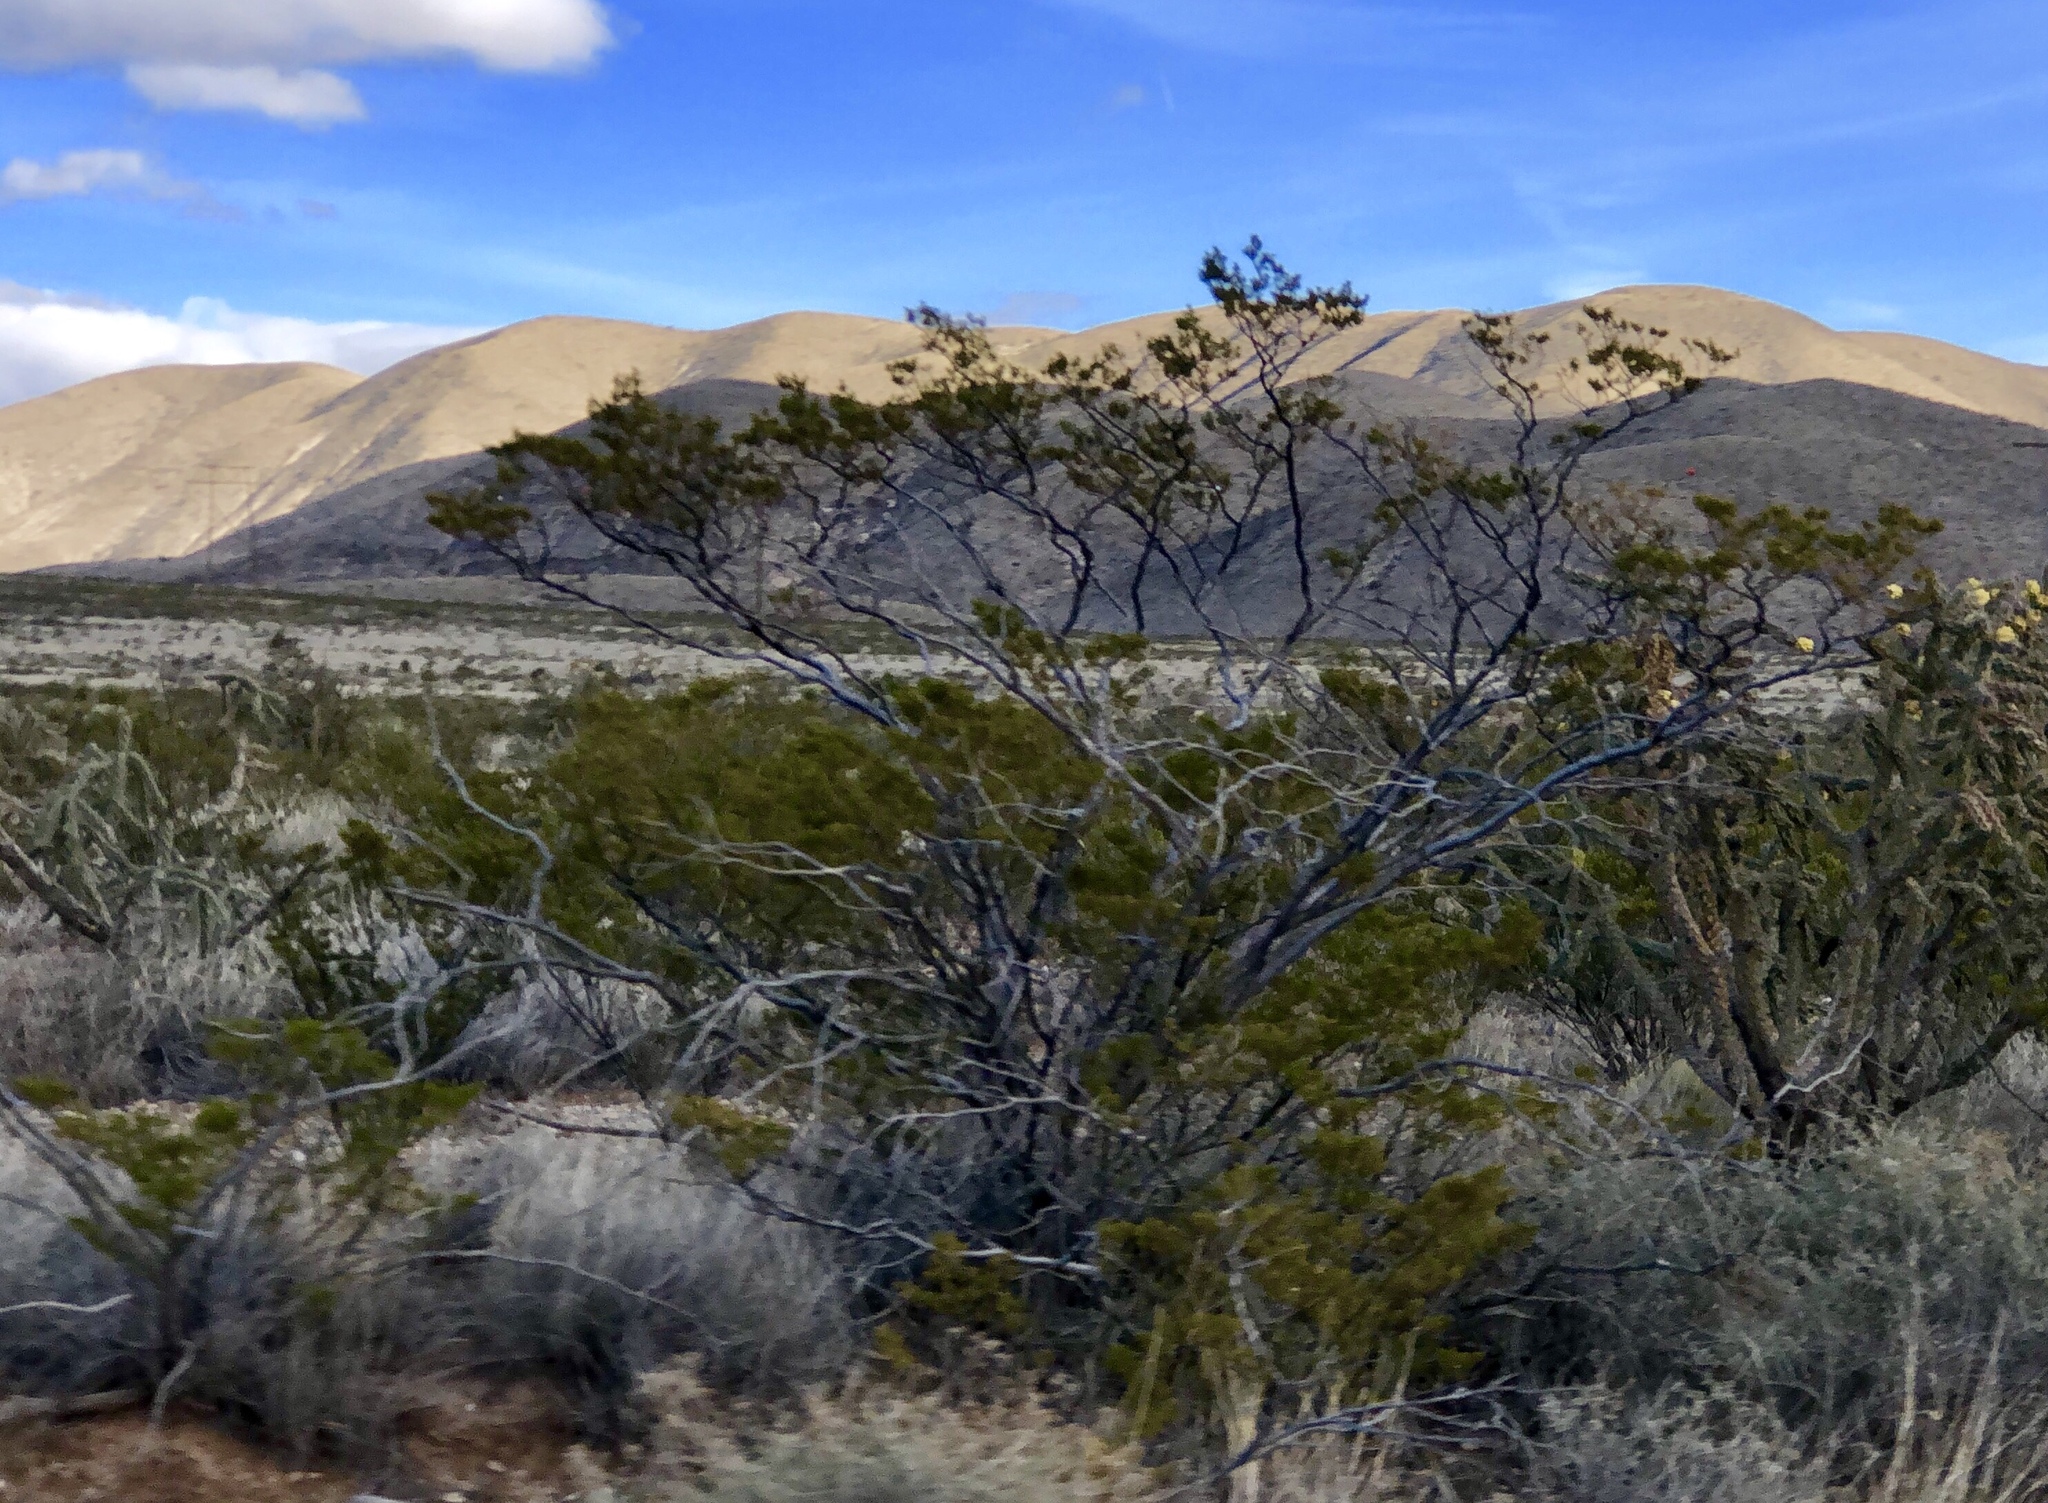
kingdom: Plantae
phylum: Tracheophyta
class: Magnoliopsida
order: Zygophyllales
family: Zygophyllaceae
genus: Larrea
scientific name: Larrea tridentata
